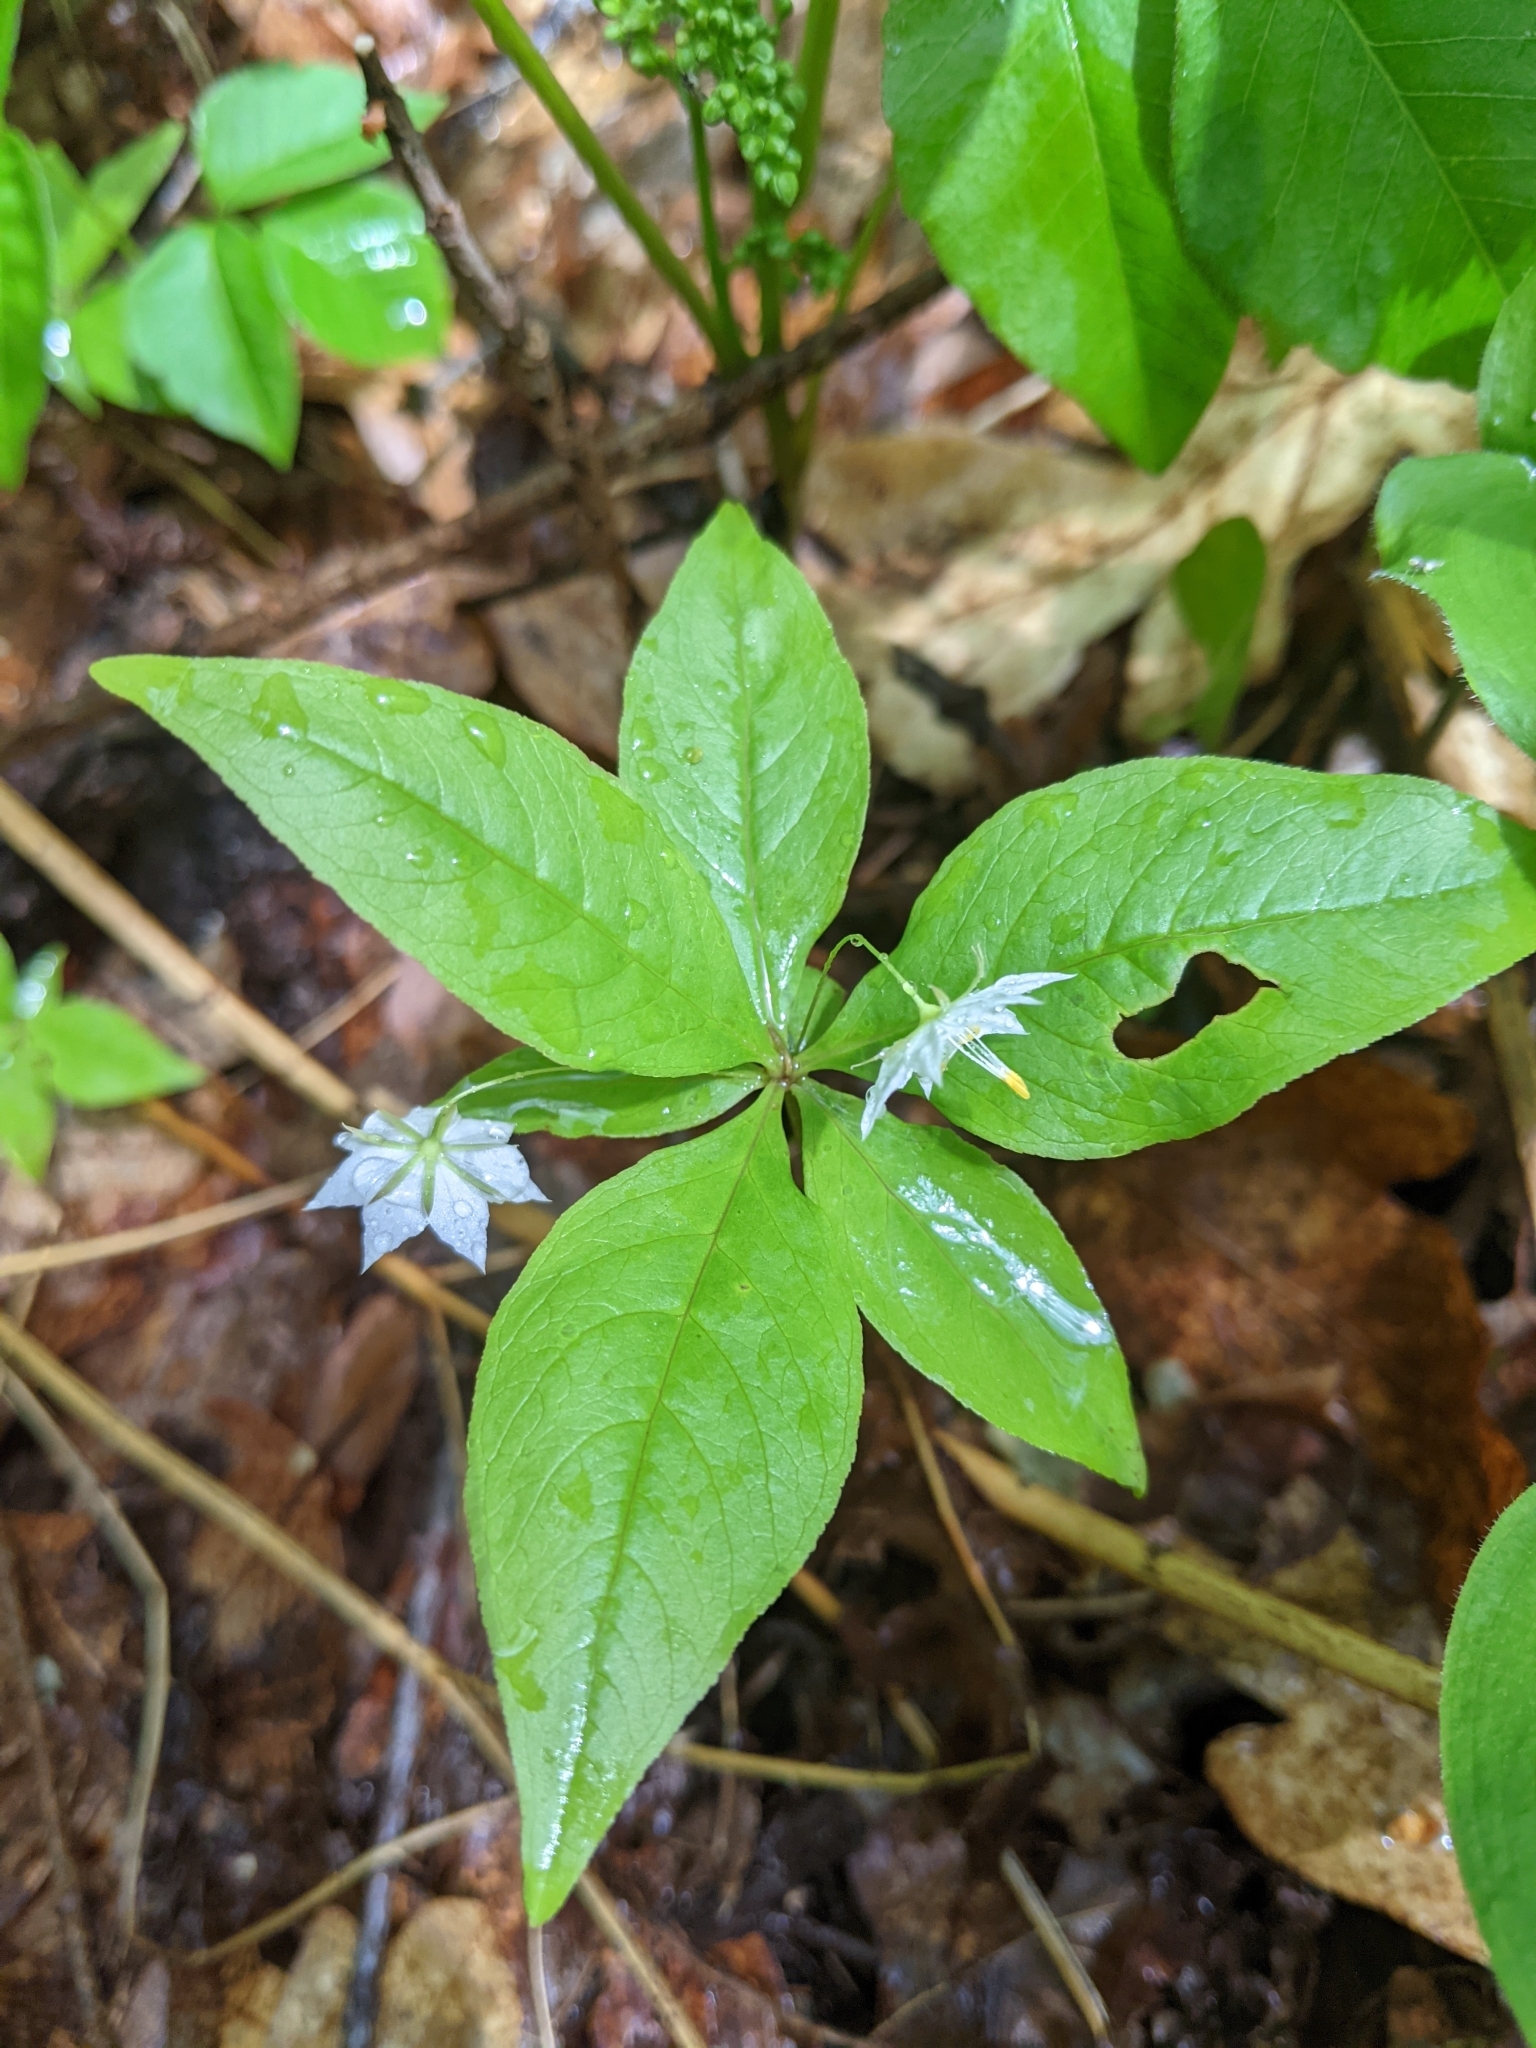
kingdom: Plantae
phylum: Tracheophyta
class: Magnoliopsida
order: Ericales
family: Primulaceae
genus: Lysimachia
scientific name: Lysimachia borealis
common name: American starflower
